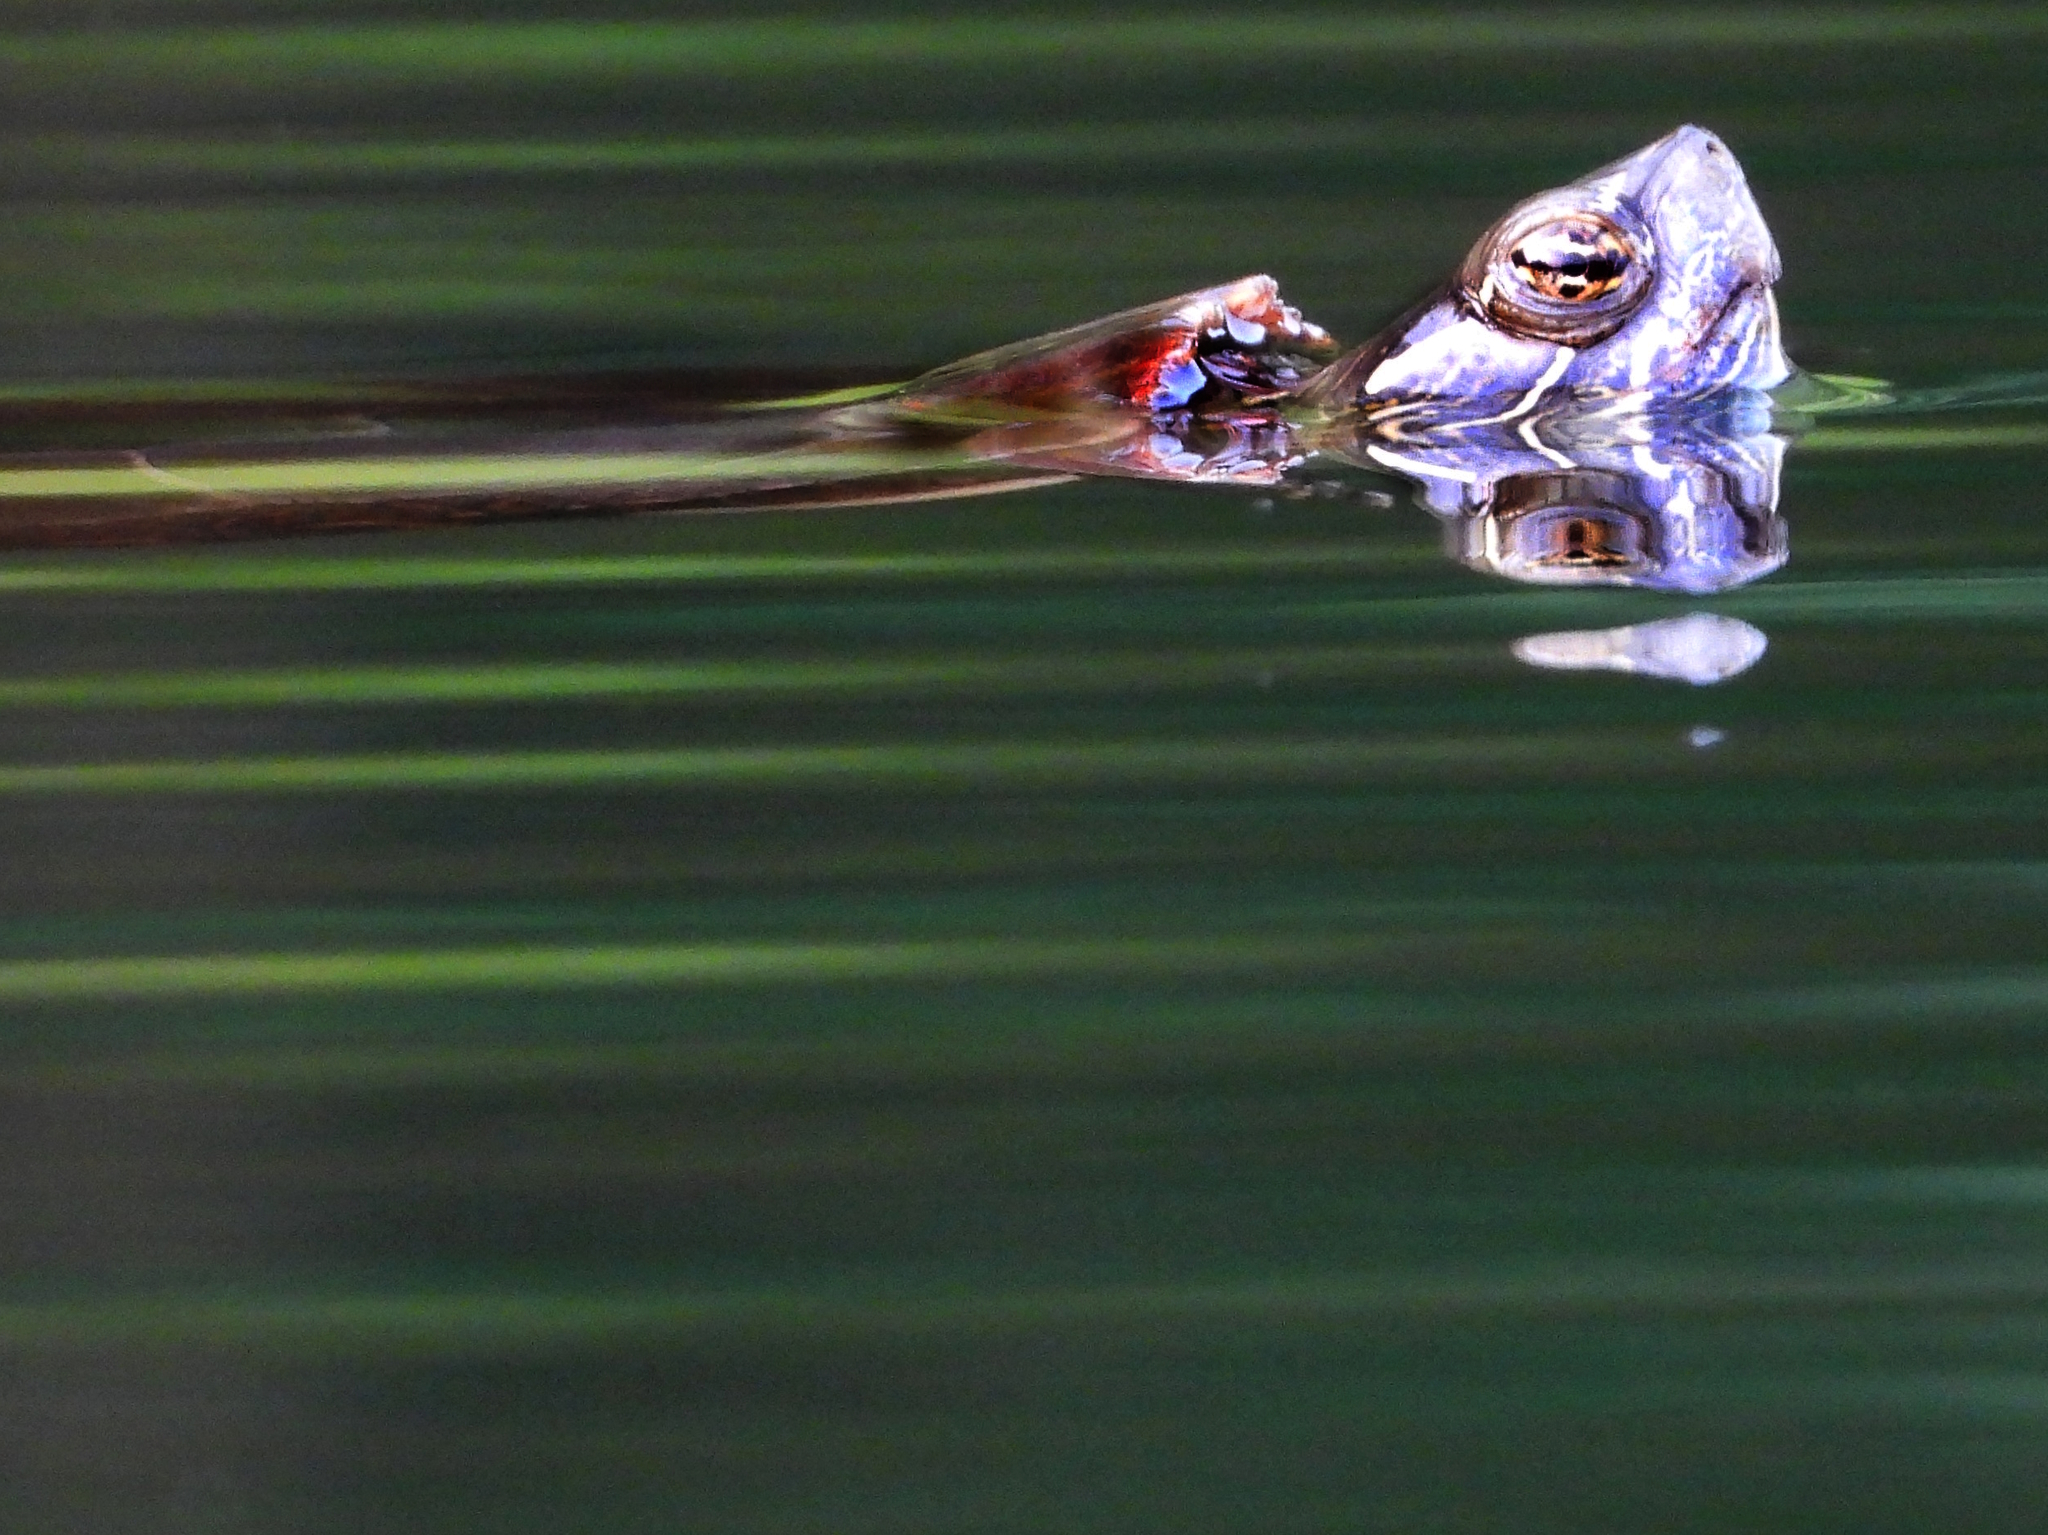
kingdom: Animalia
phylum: Chordata
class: Testudines
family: Emydidae
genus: Chrysemys
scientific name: Chrysemys picta
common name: Painted turtle
